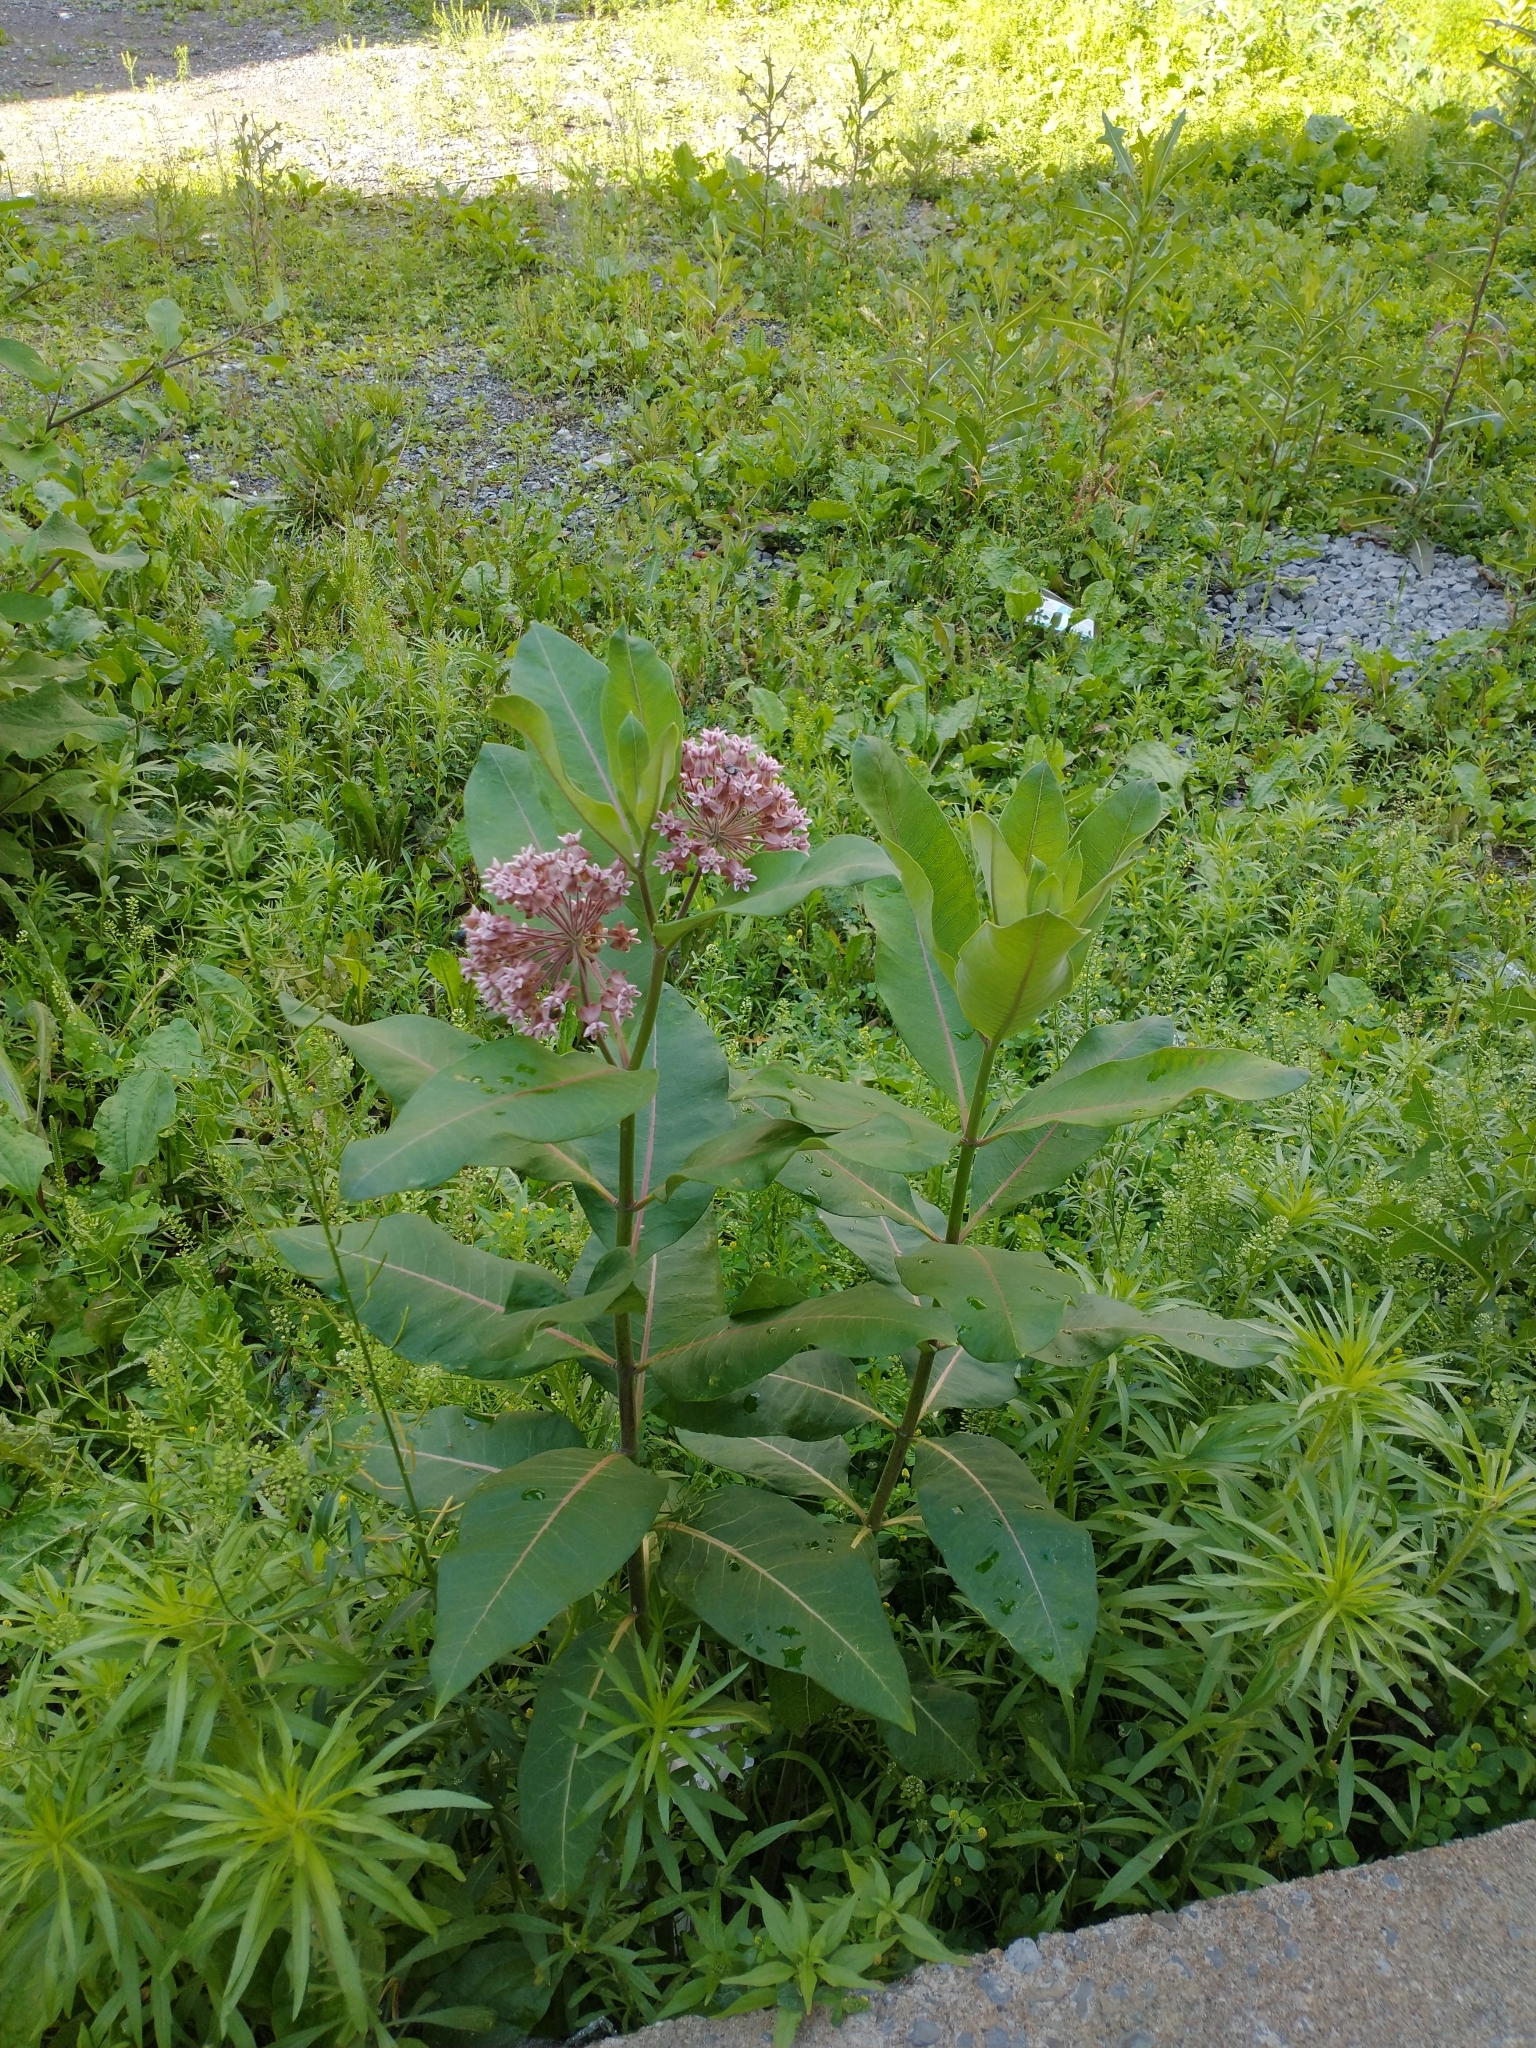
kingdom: Plantae
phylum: Tracheophyta
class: Magnoliopsida
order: Gentianales
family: Apocynaceae
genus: Asclepias
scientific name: Asclepias syriaca
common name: Common milkweed
